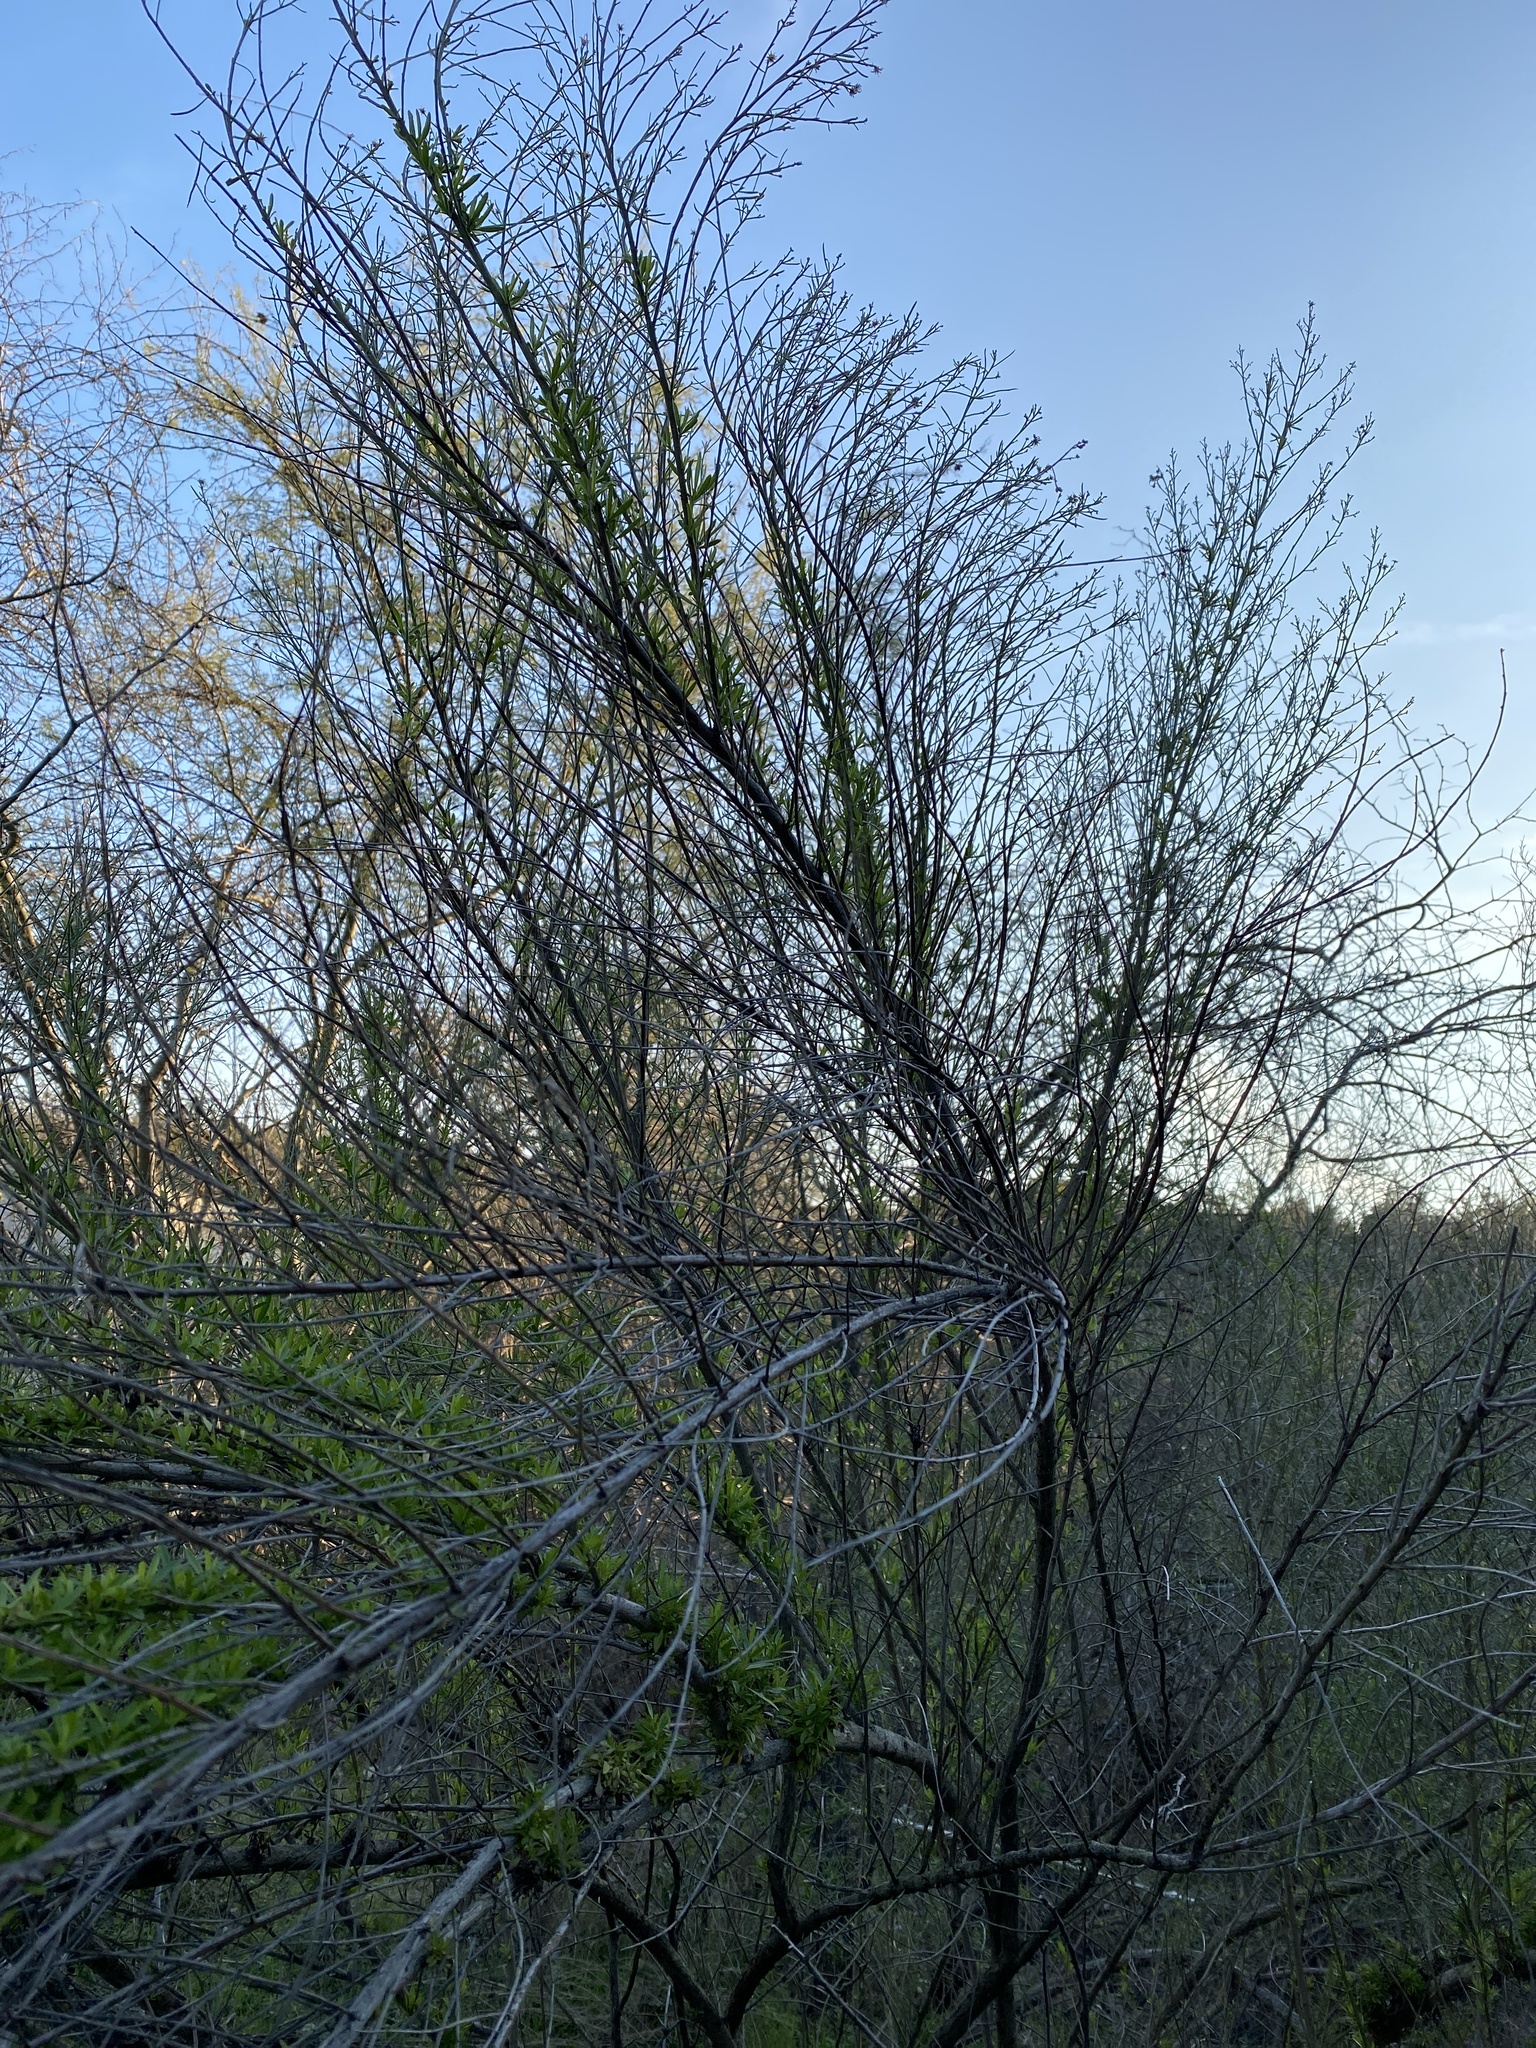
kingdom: Plantae
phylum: Tracheophyta
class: Magnoliopsida
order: Asterales
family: Asteraceae
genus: Baccharis
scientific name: Baccharis neglecta
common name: Roosevelt-weed
